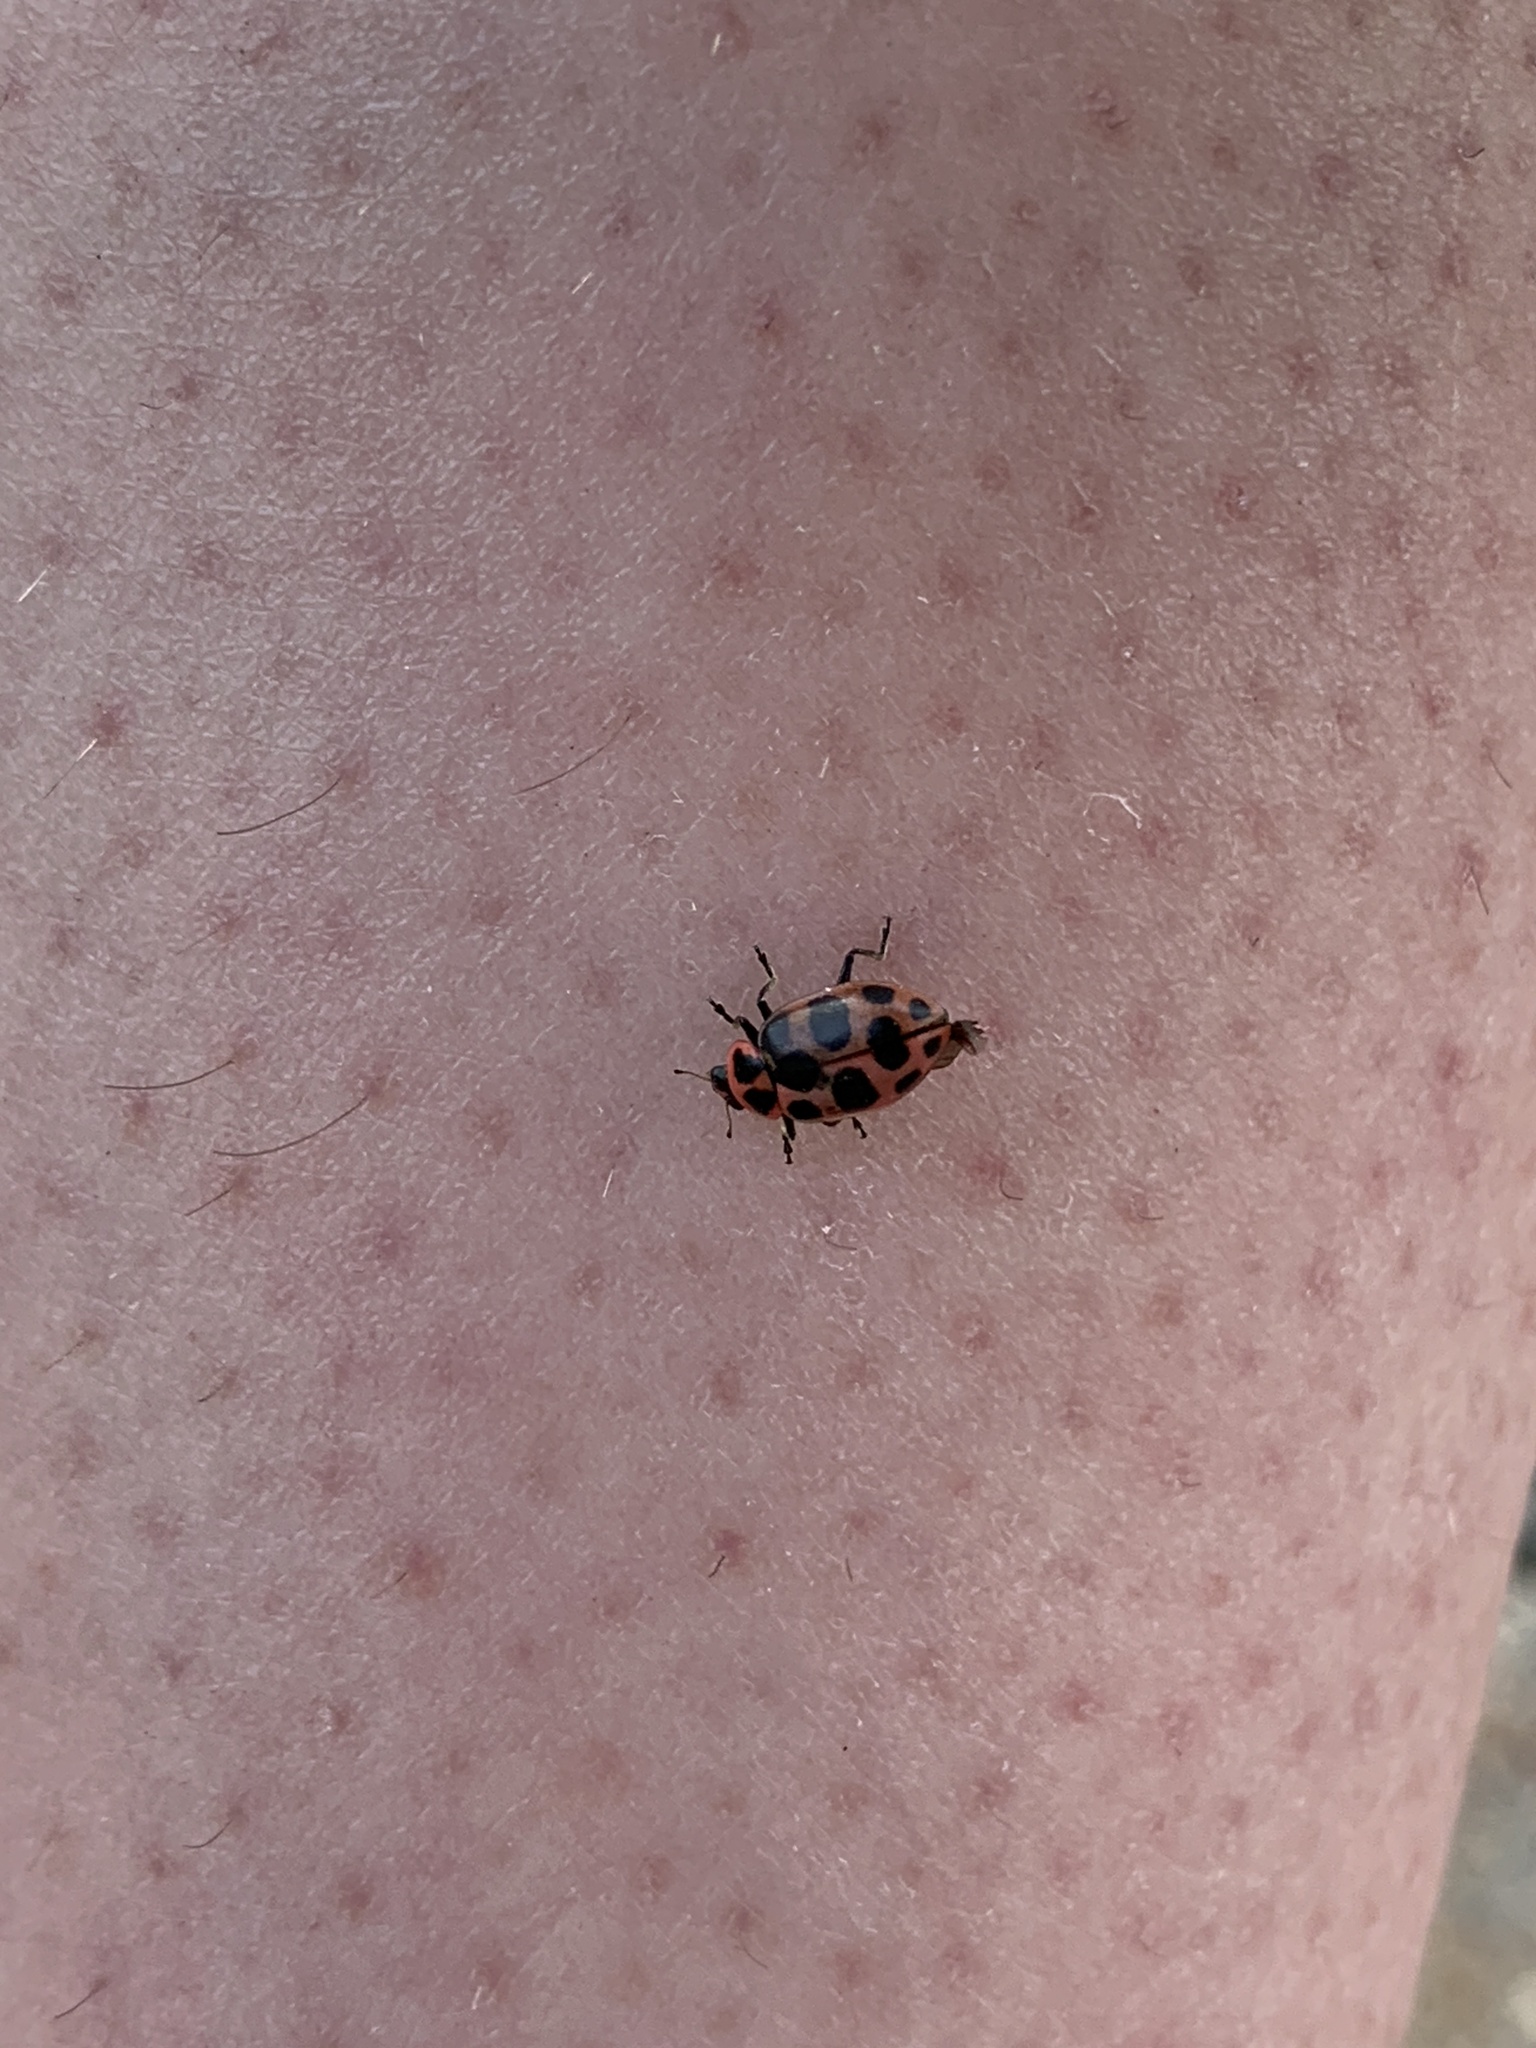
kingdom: Animalia
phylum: Arthropoda
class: Insecta
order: Coleoptera
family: Coccinellidae
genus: Coleomegilla
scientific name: Coleomegilla maculata
